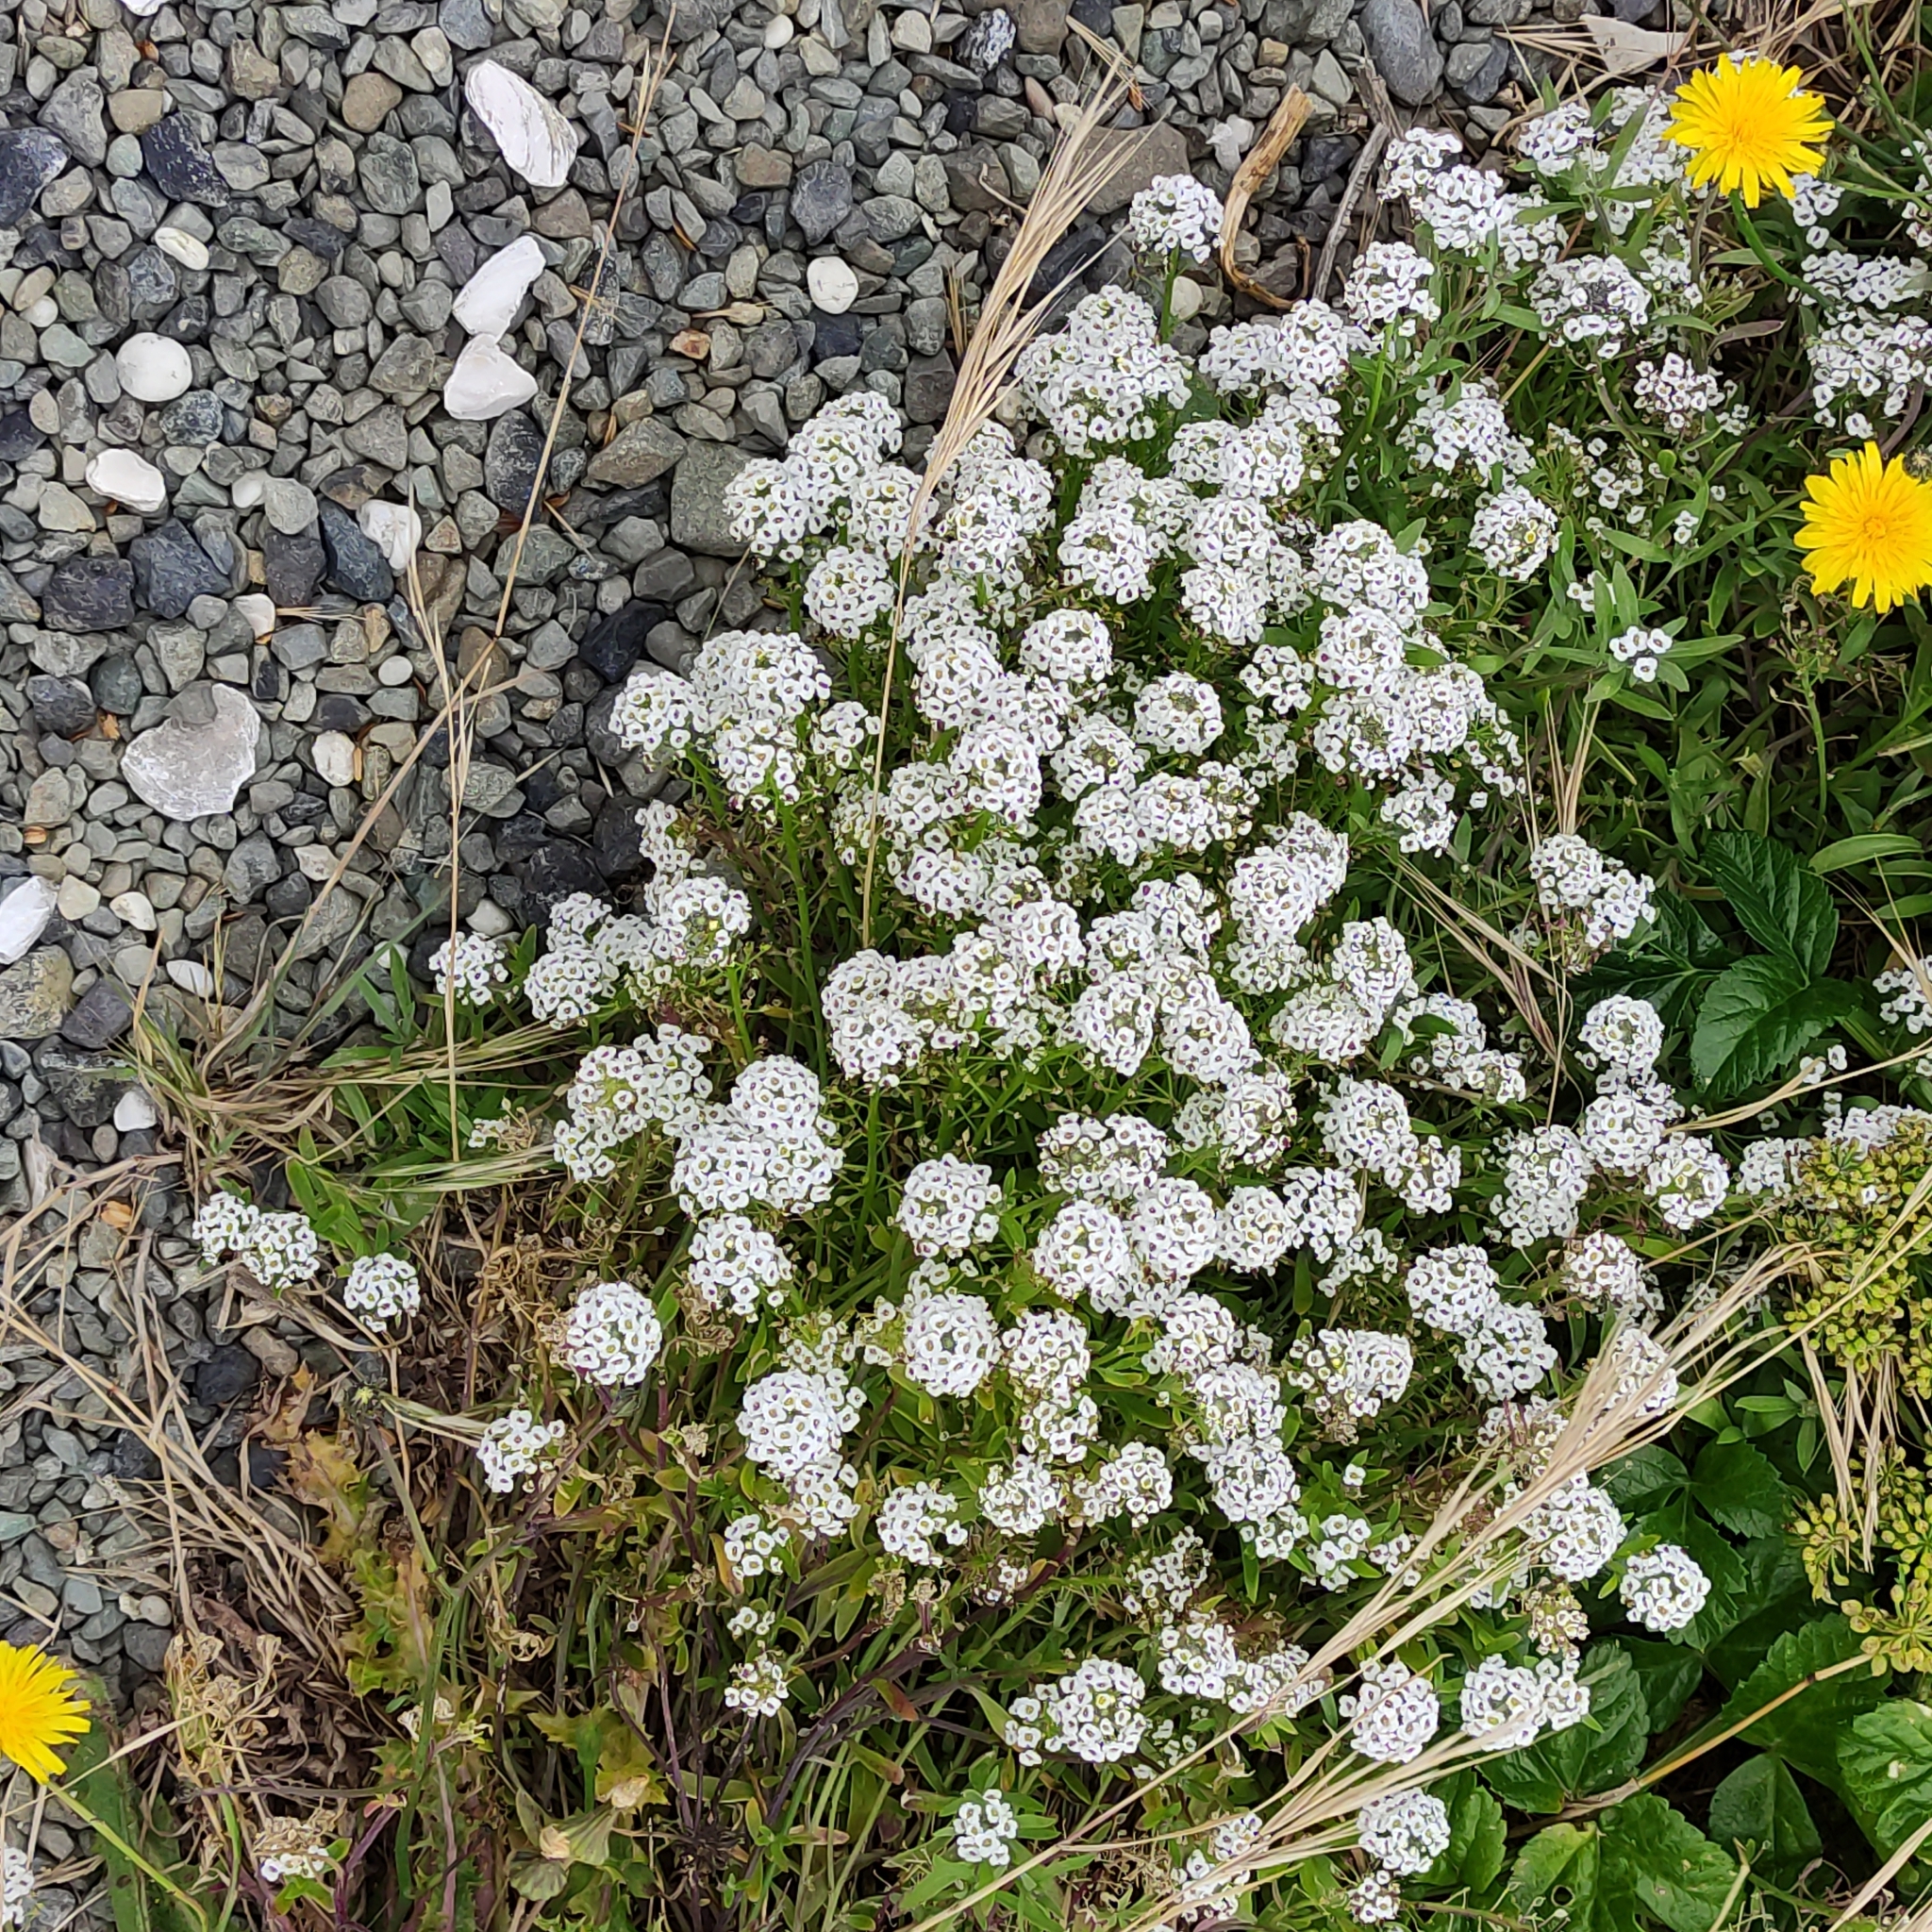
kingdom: Plantae
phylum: Tracheophyta
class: Magnoliopsida
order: Brassicales
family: Brassicaceae
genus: Lobularia
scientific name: Lobularia maritima
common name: Sweet alison
